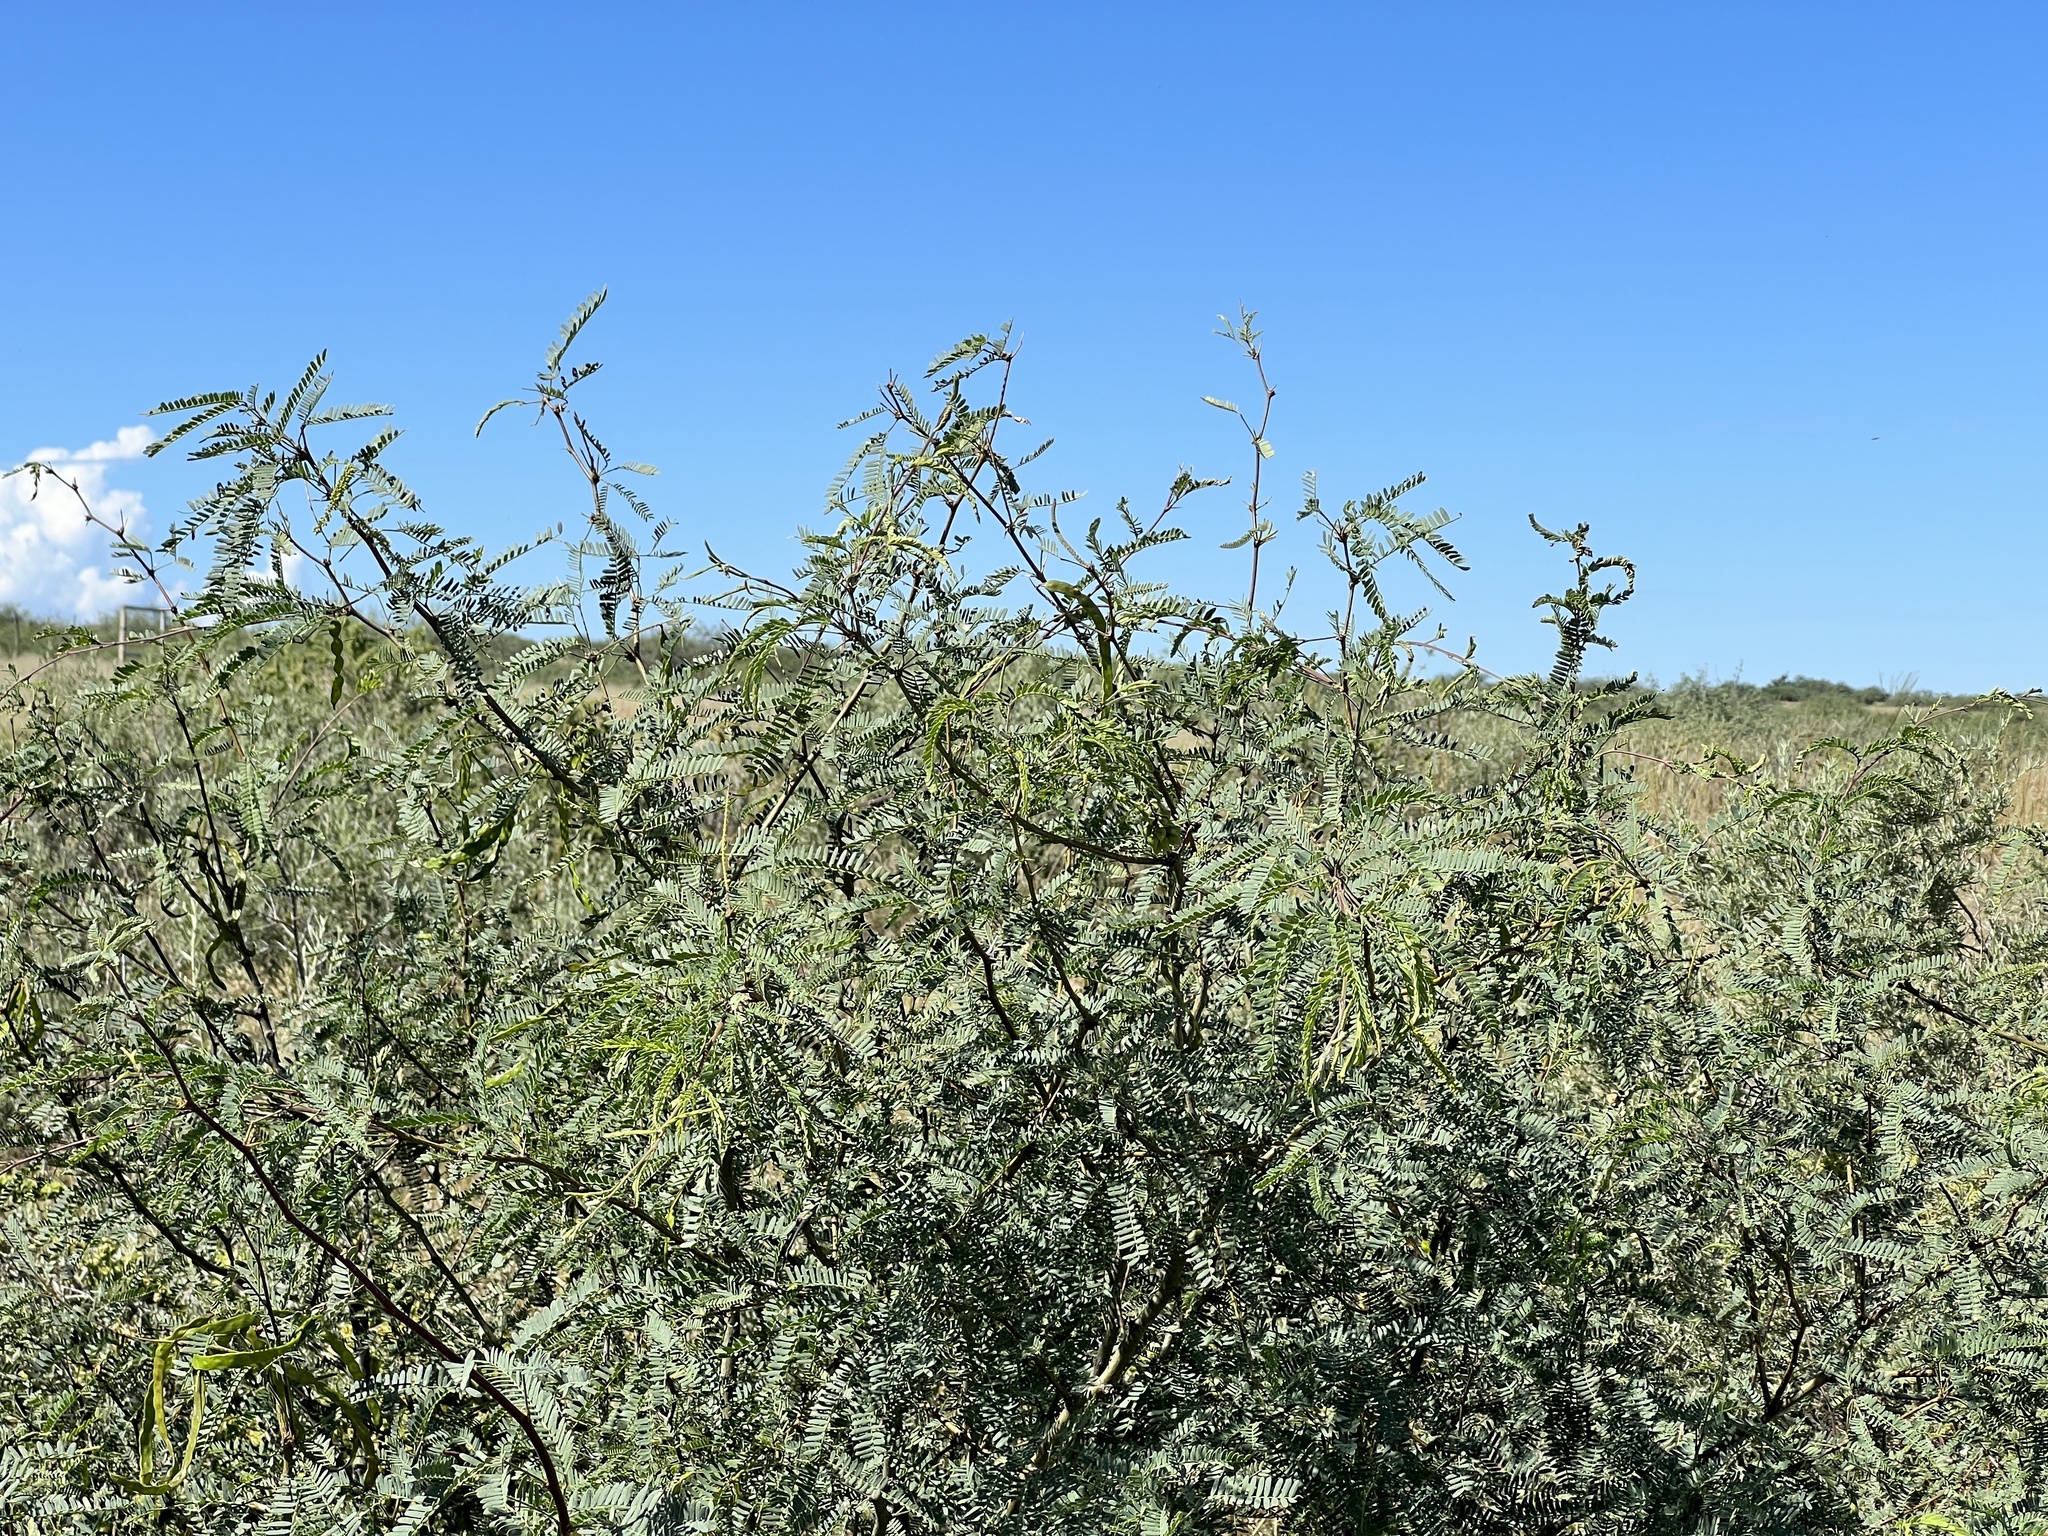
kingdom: Plantae
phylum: Tracheophyta
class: Magnoliopsida
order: Fabales
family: Fabaceae
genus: Prosopis
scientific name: Prosopis velutina
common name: Velvet mesquite
